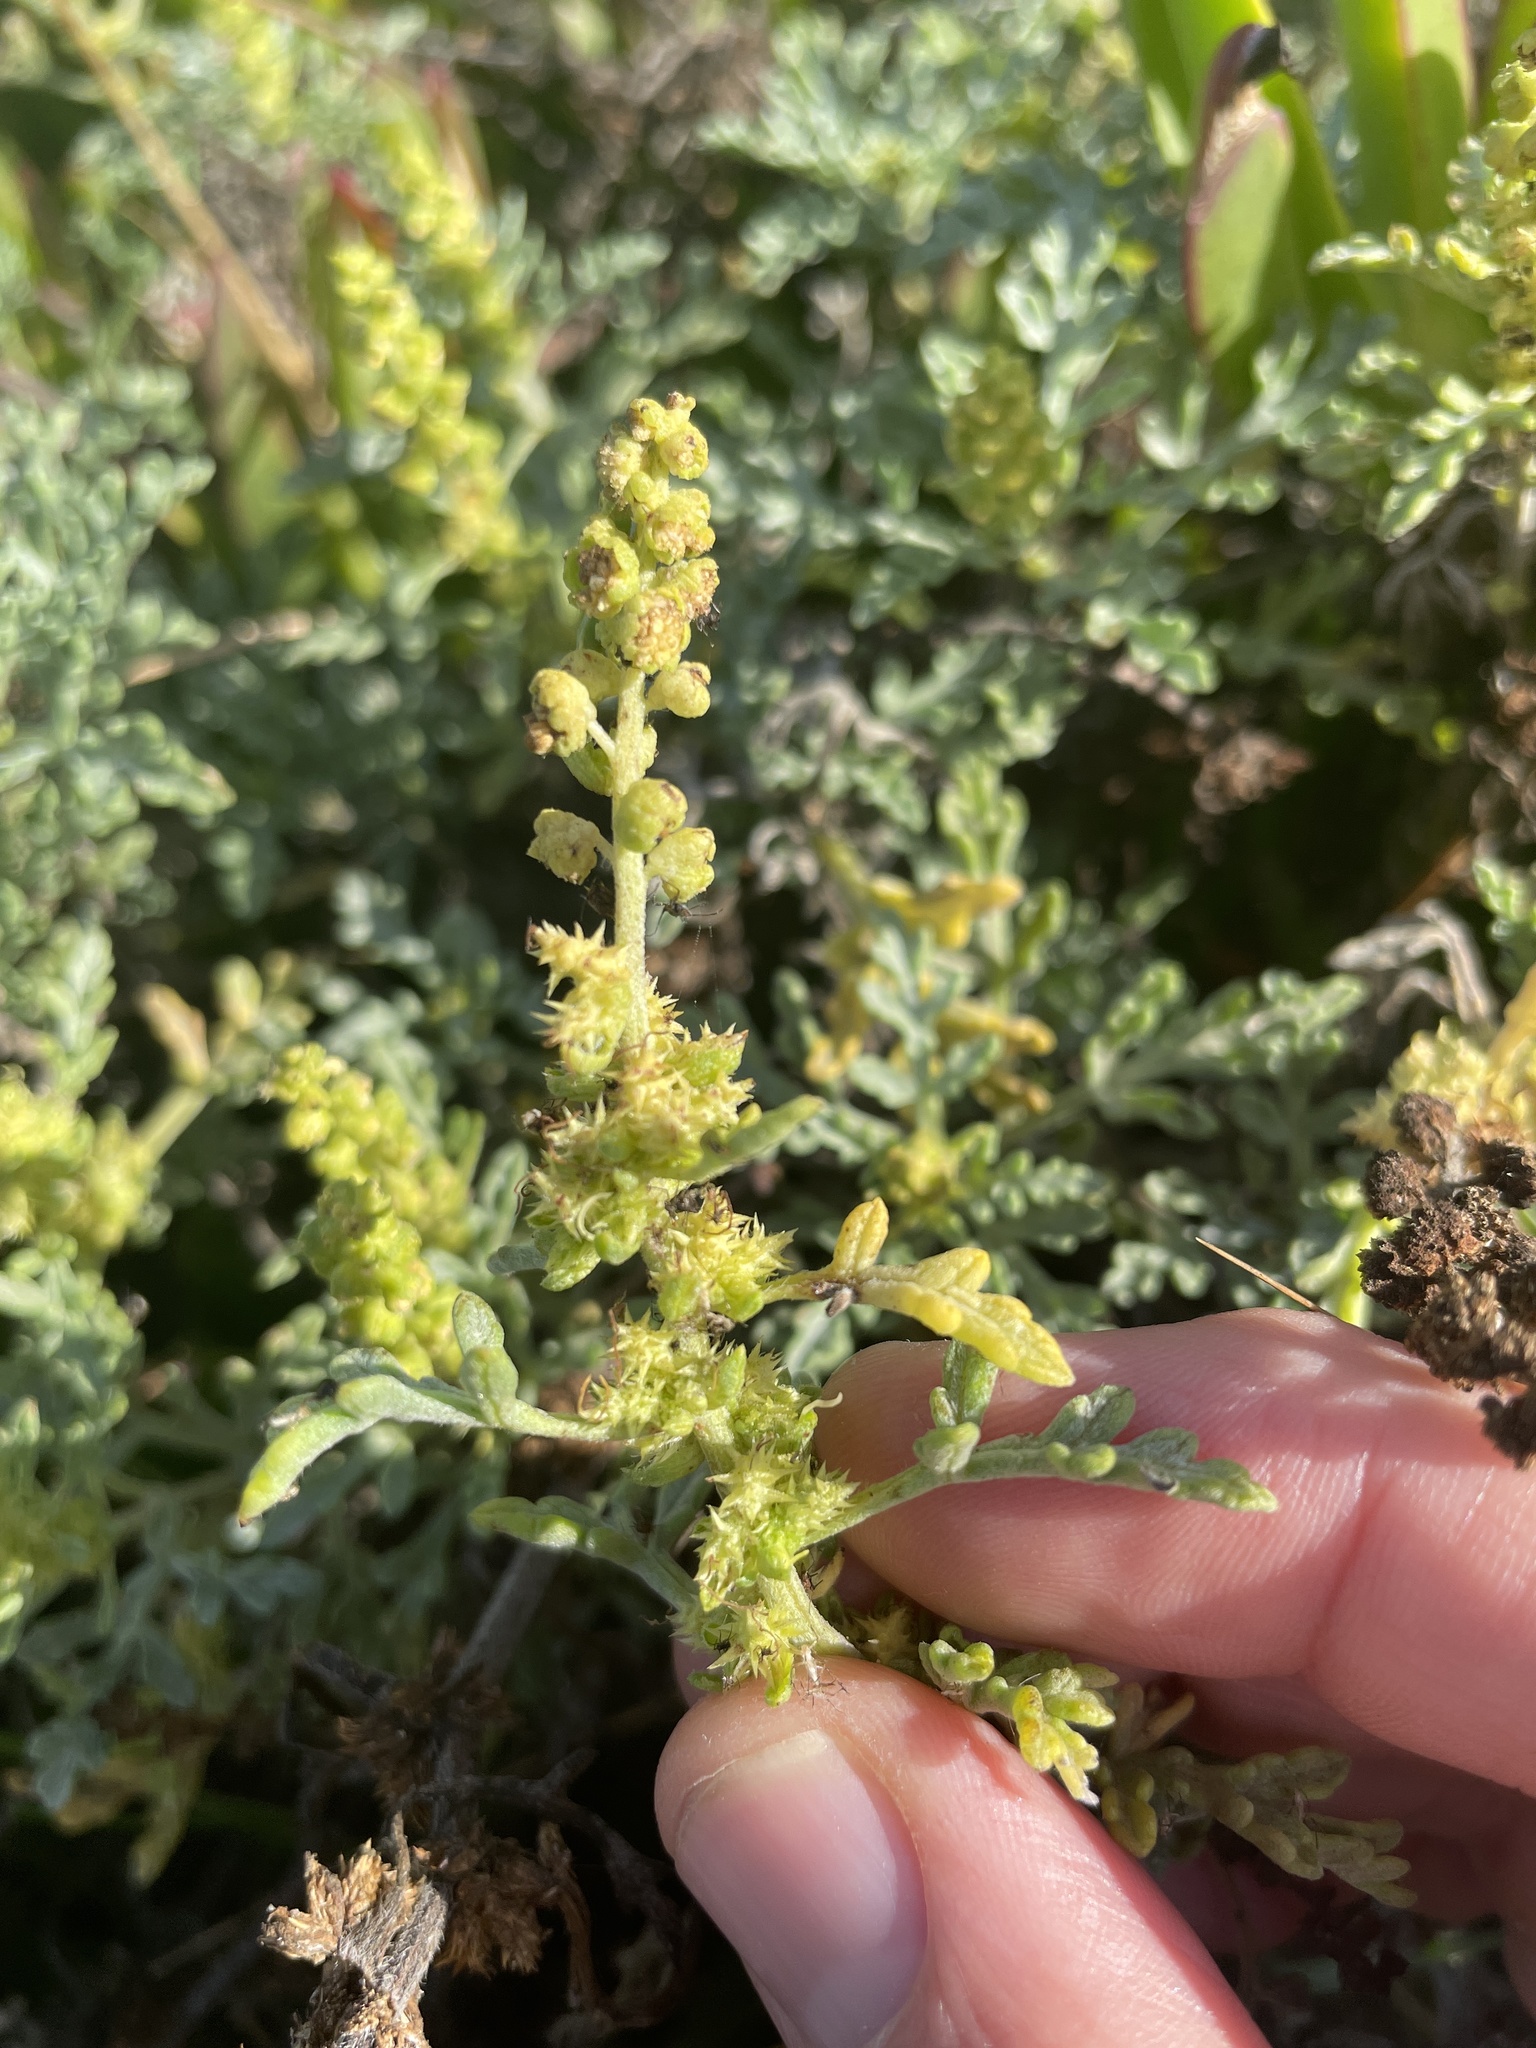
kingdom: Plantae
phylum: Tracheophyta
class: Magnoliopsida
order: Asterales
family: Asteraceae
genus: Ambrosia
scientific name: Ambrosia chamissonis
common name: Beachbur
